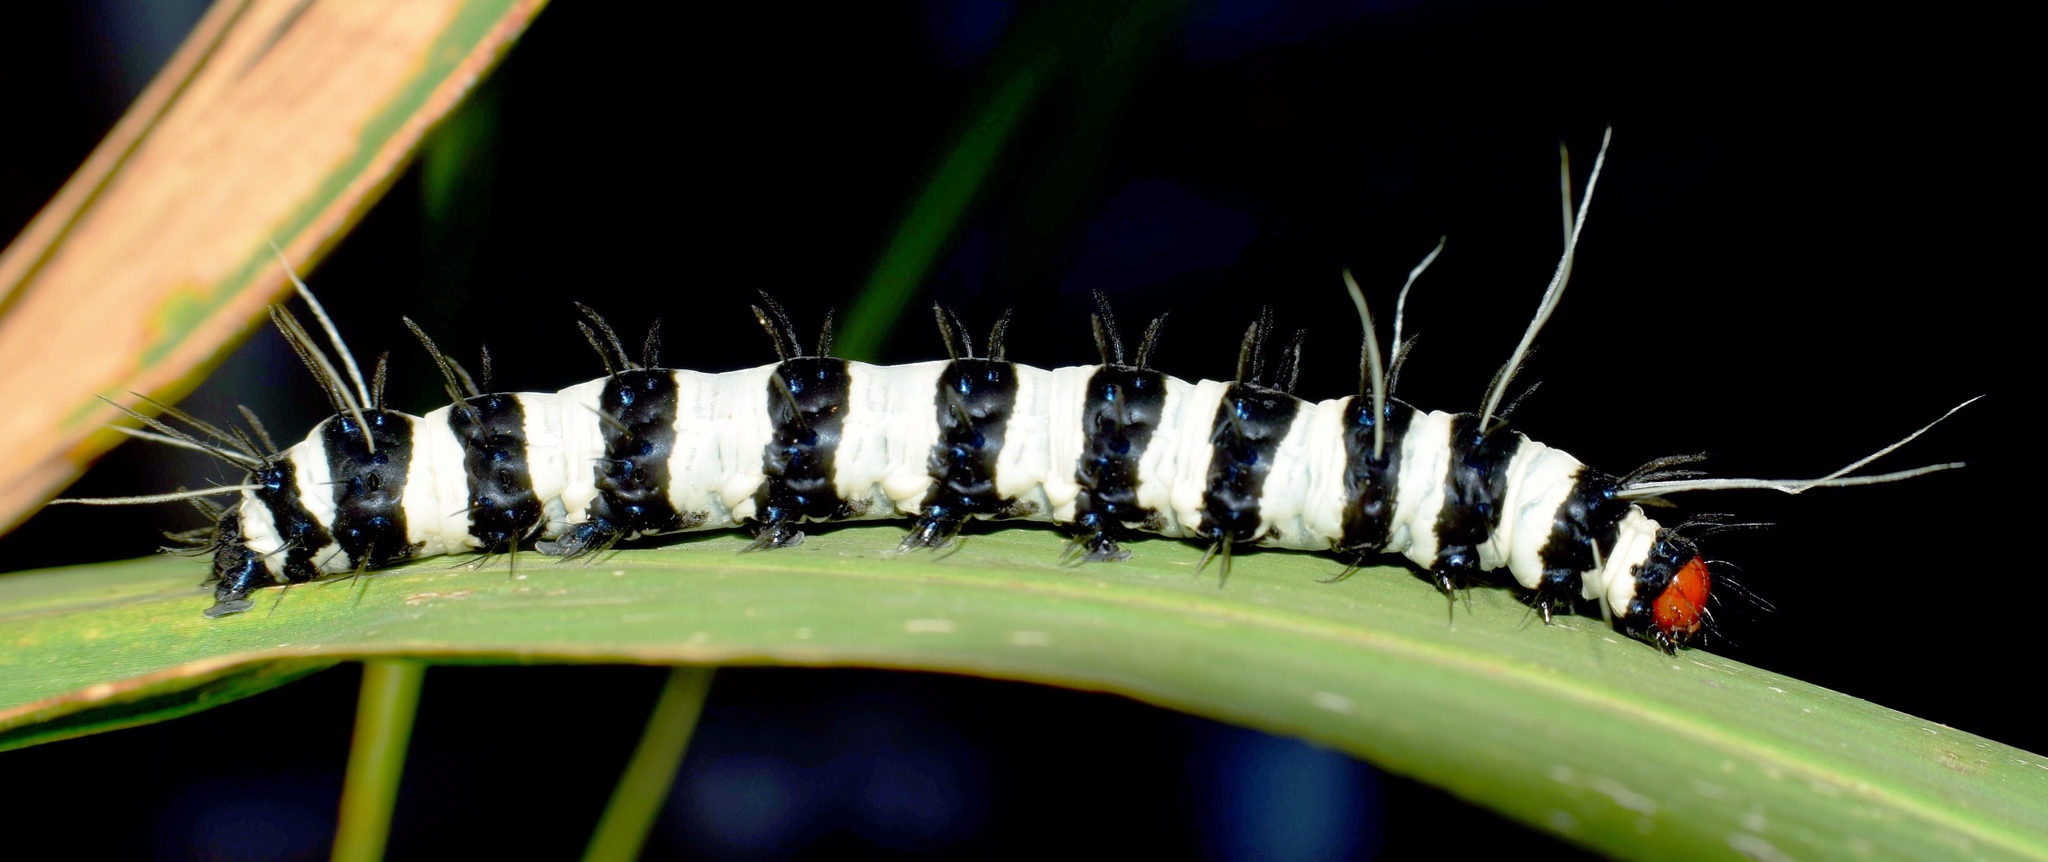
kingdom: Animalia
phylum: Arthropoda
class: Insecta
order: Lepidoptera
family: Erebidae
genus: Amphicallia
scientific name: Amphicallia bellatrix
